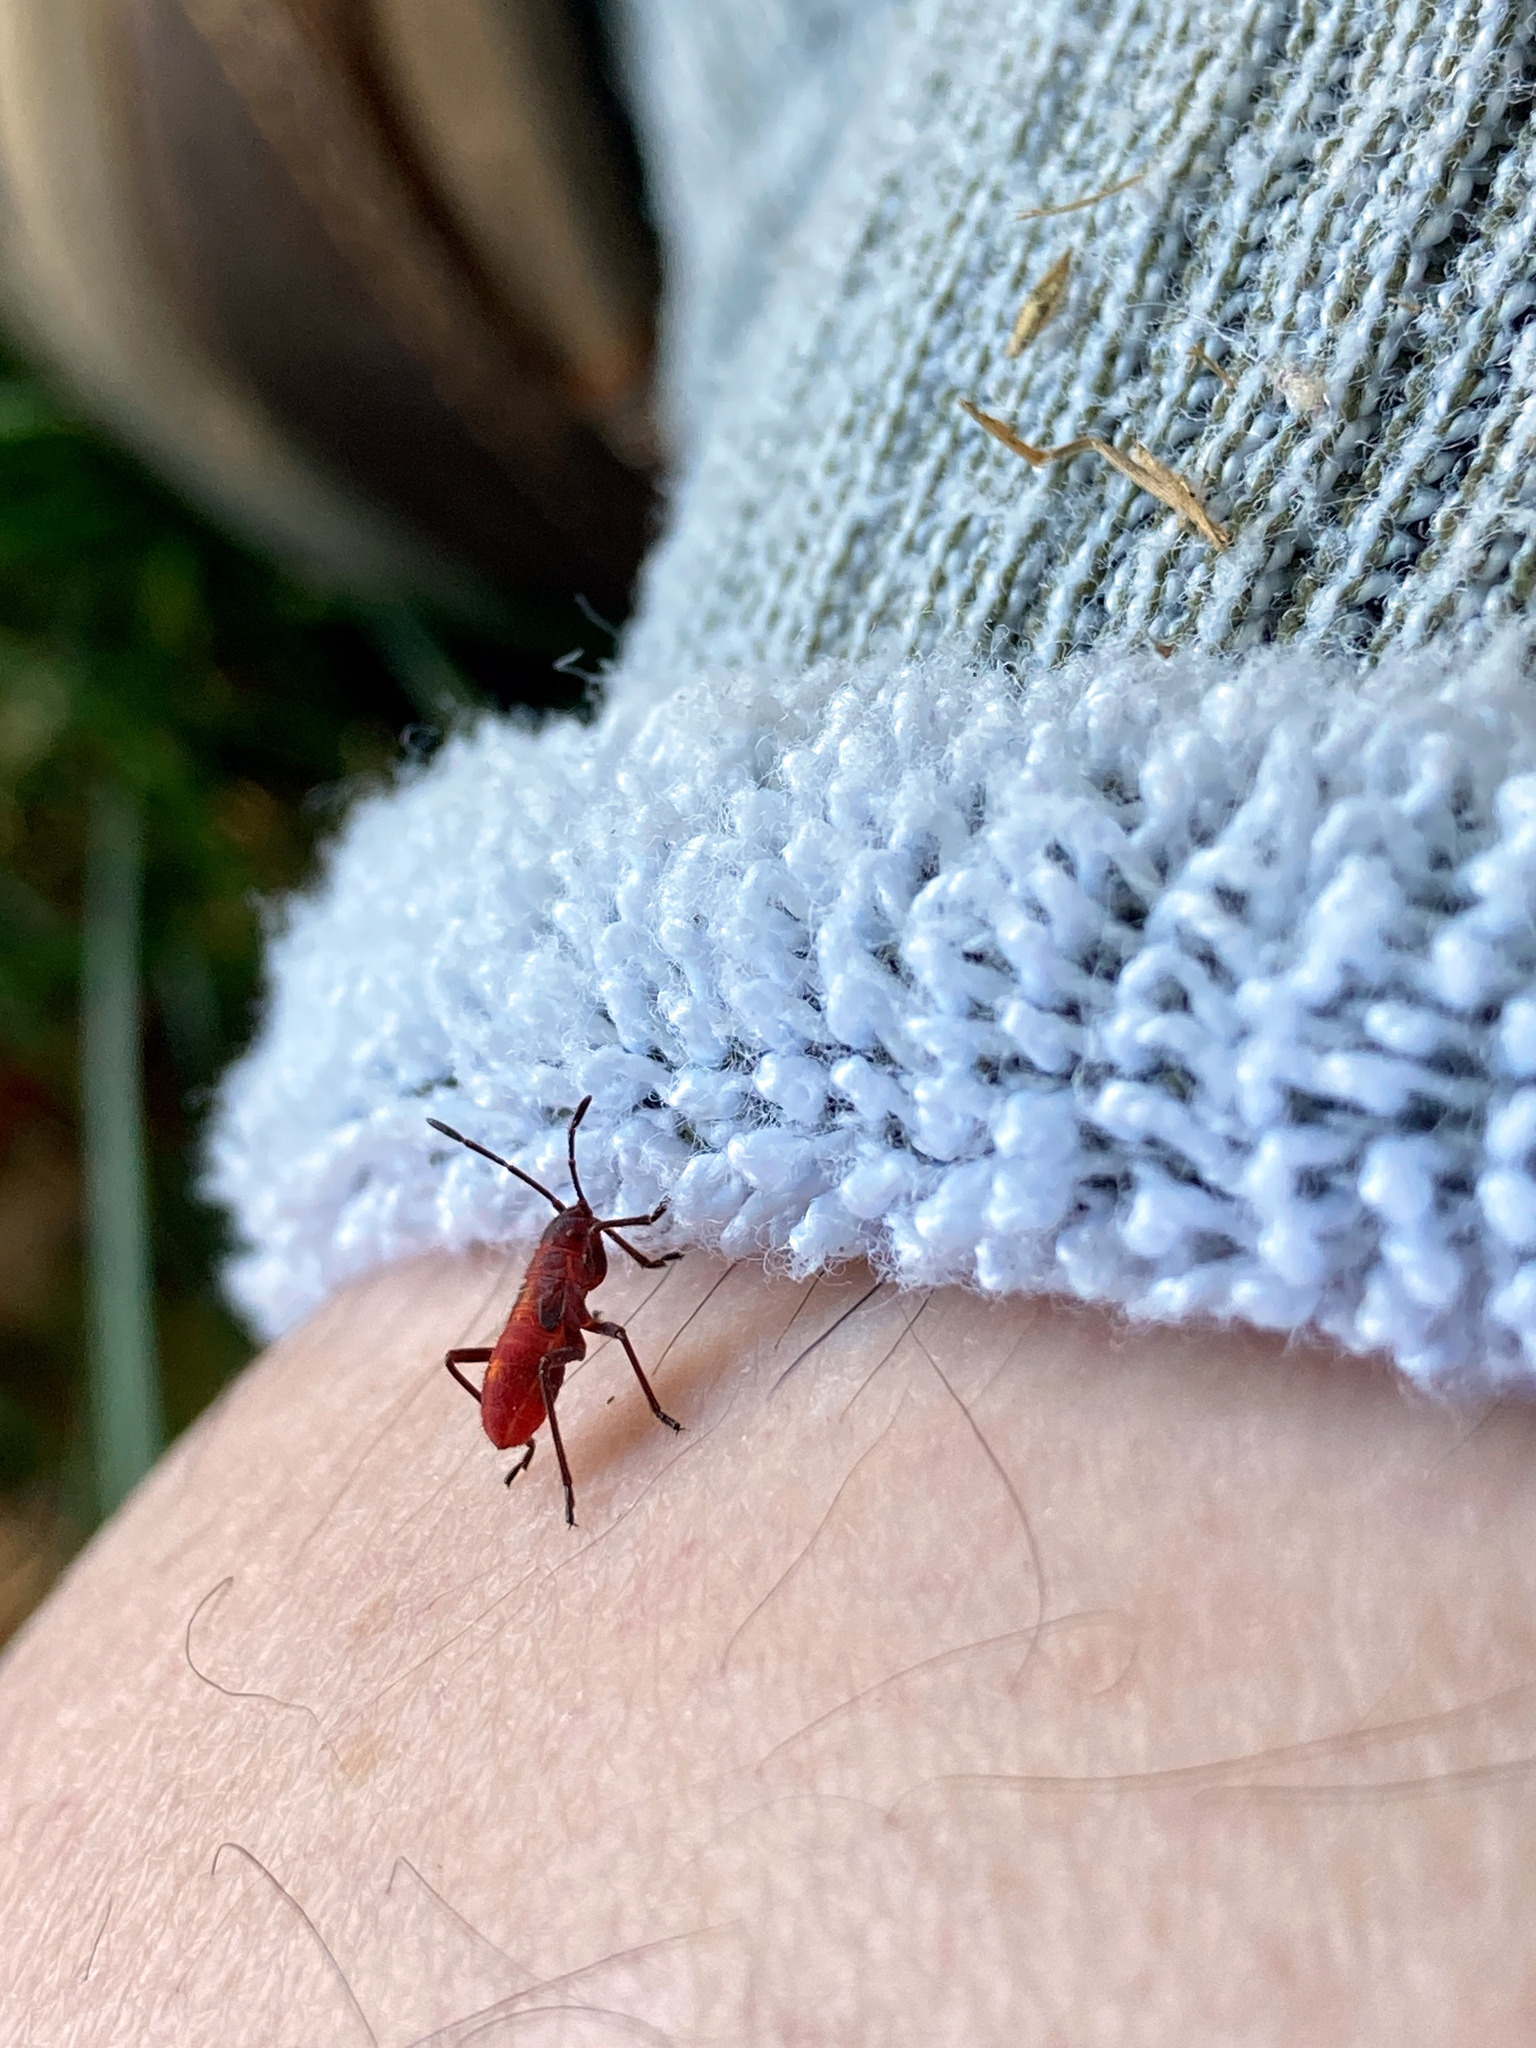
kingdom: Animalia
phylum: Arthropoda
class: Insecta
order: Hemiptera
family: Rhopalidae
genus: Boisea
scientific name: Boisea trivittata
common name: Boxelder bug
